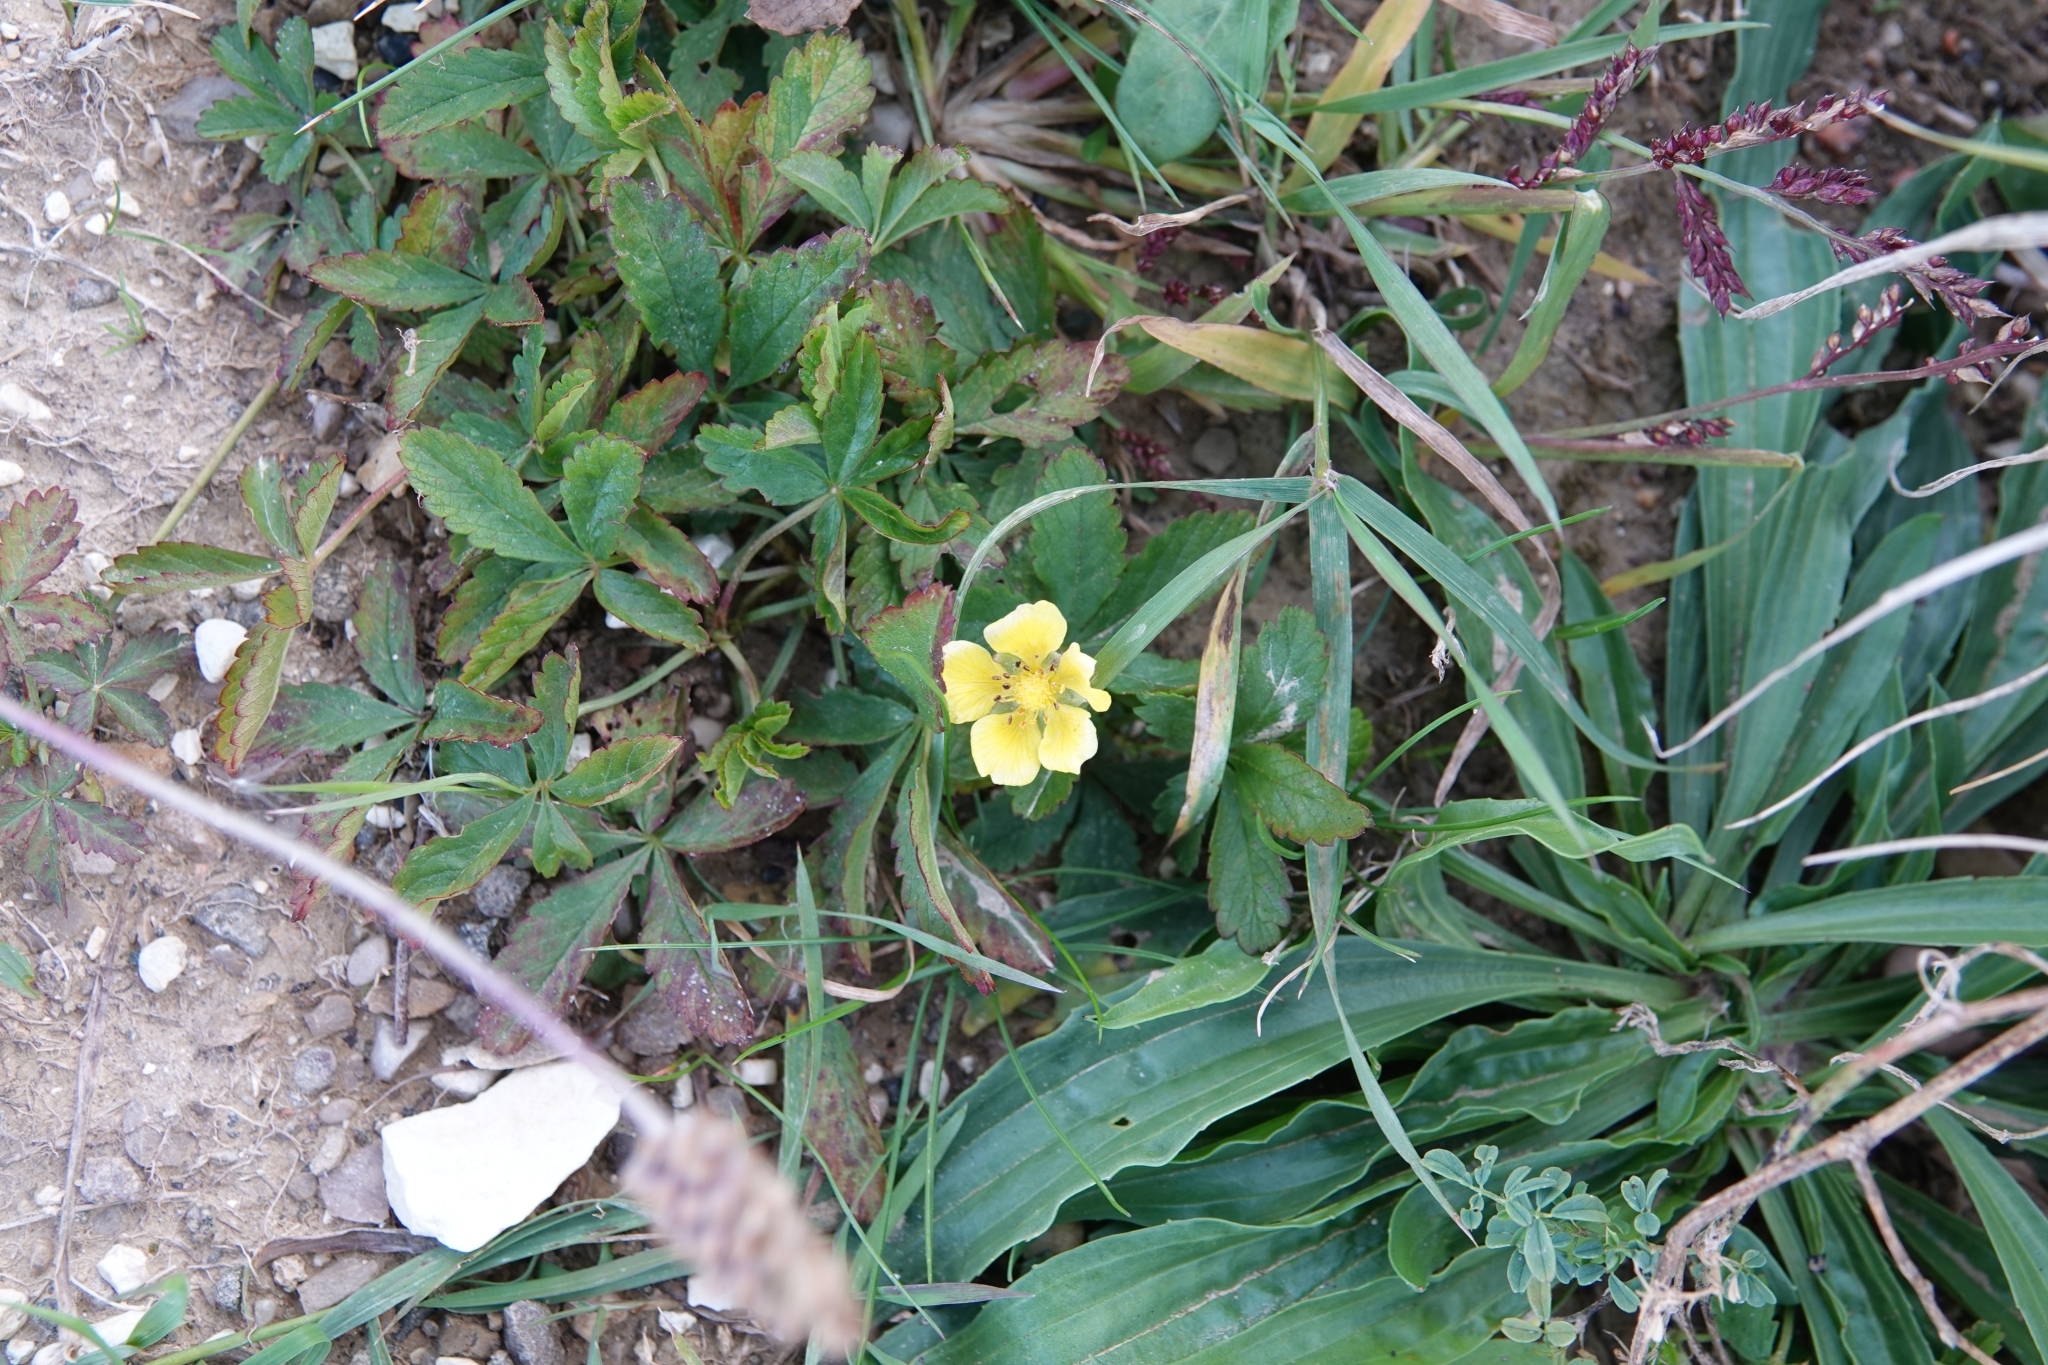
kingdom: Plantae
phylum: Tracheophyta
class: Magnoliopsida
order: Rosales
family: Rosaceae
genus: Potentilla
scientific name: Potentilla reptans
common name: Creeping cinquefoil
